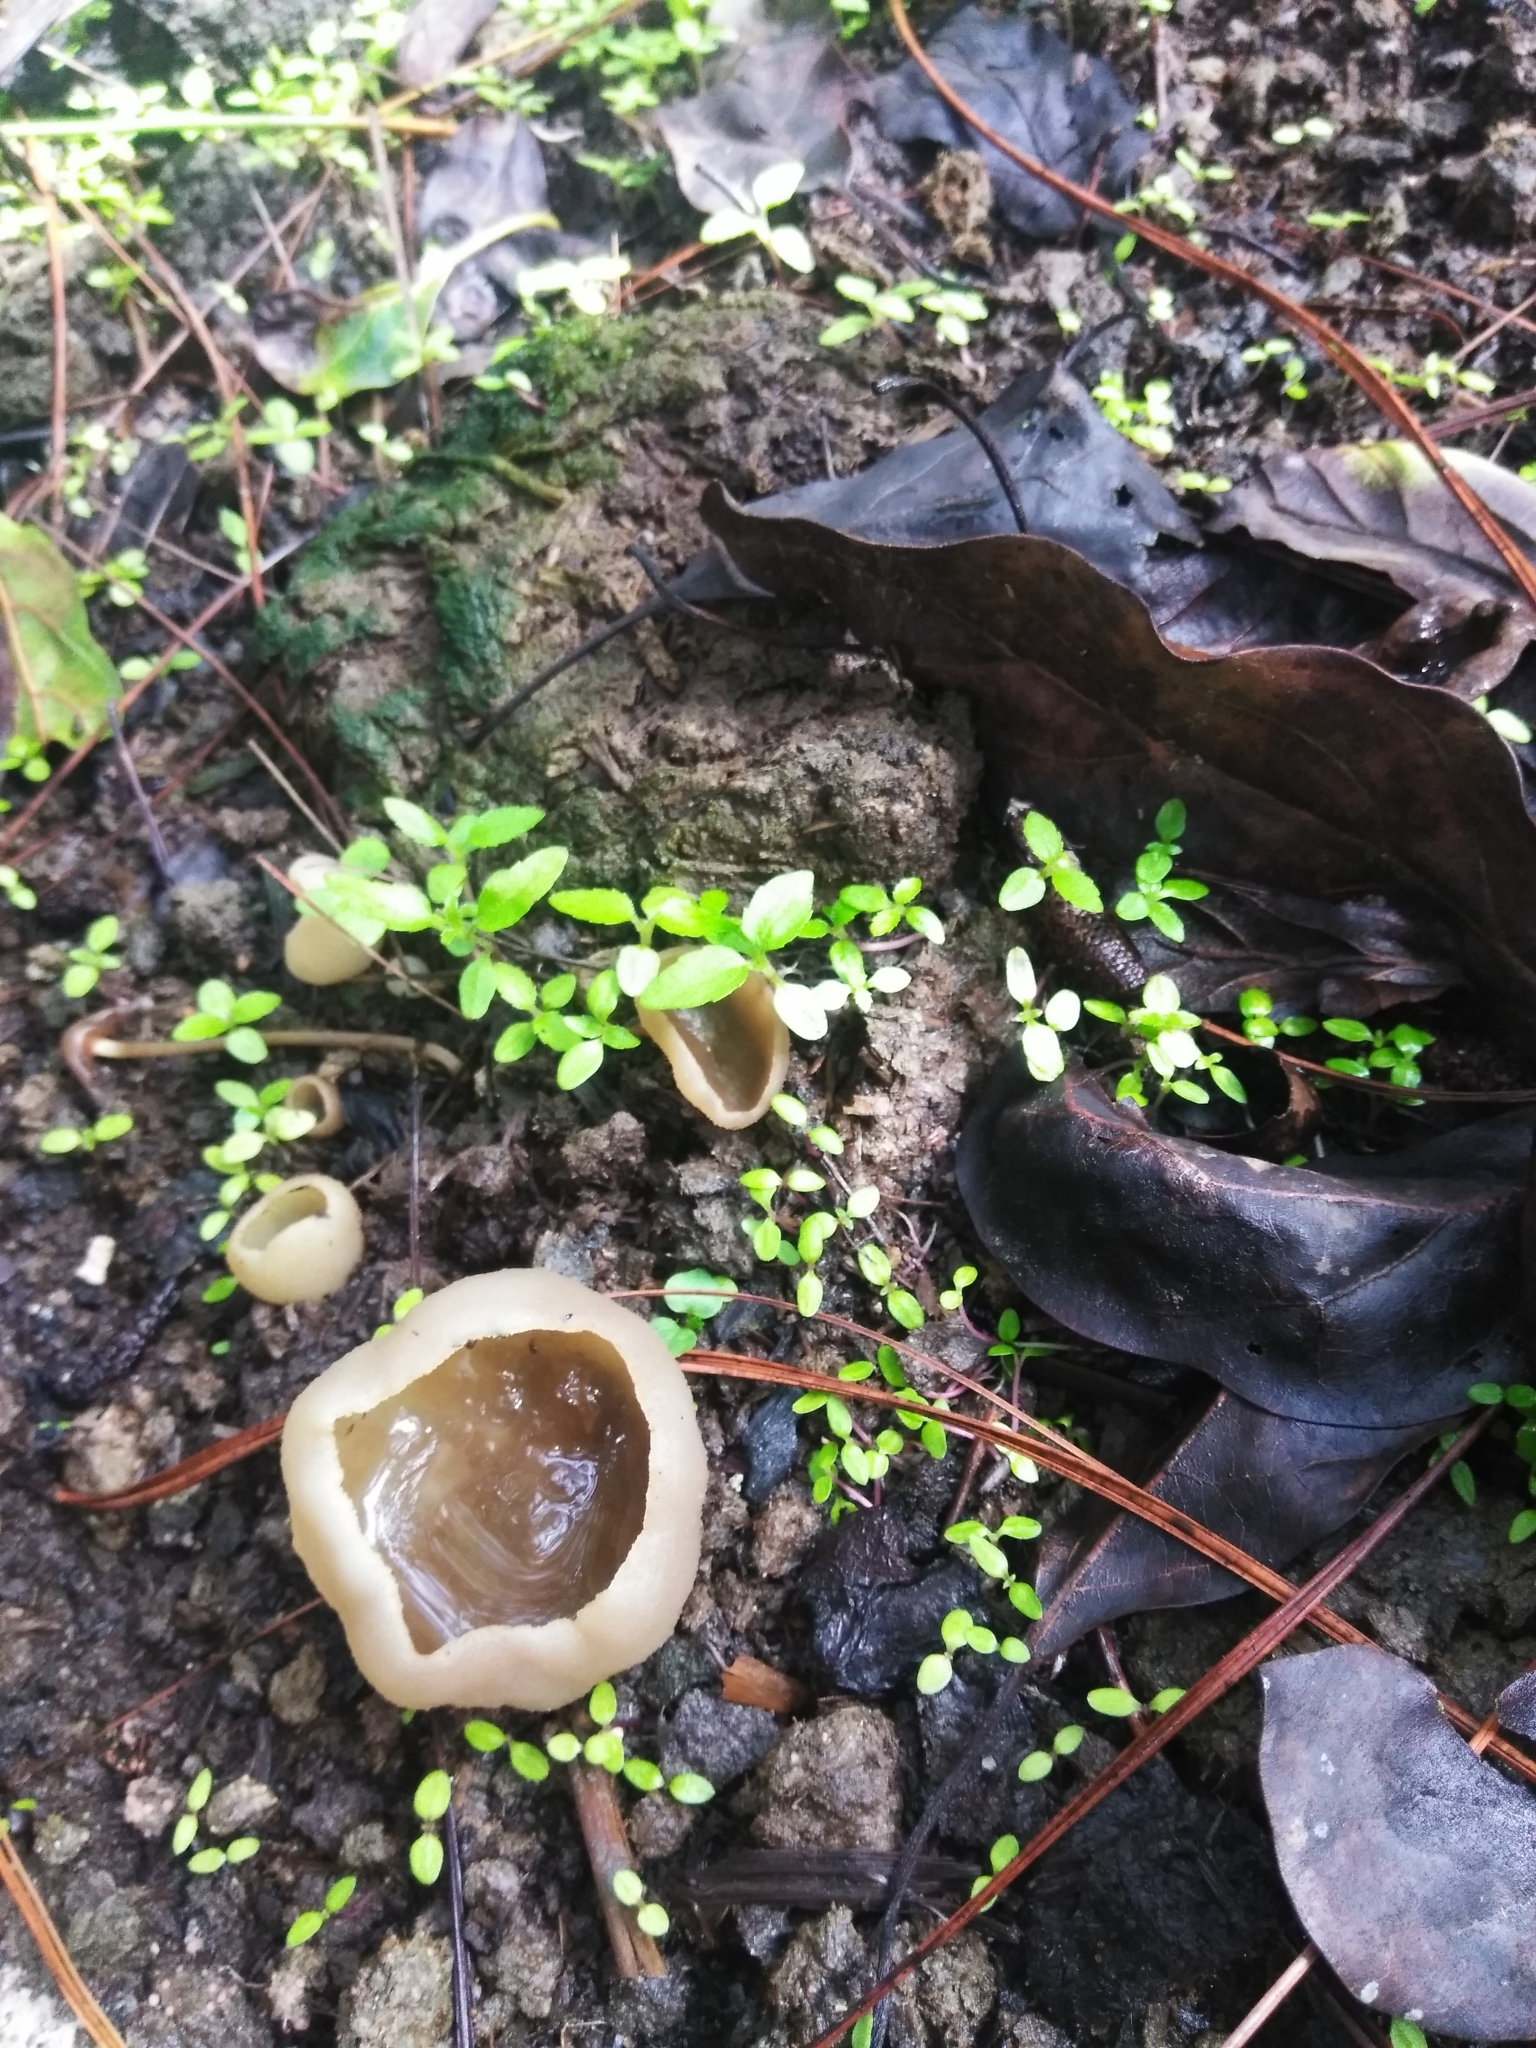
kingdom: Fungi
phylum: Ascomycota
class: Pezizomycetes
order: Pezizales
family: Pezizaceae
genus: Peziza
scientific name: Peziza vesiculosa
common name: Blistered cup
